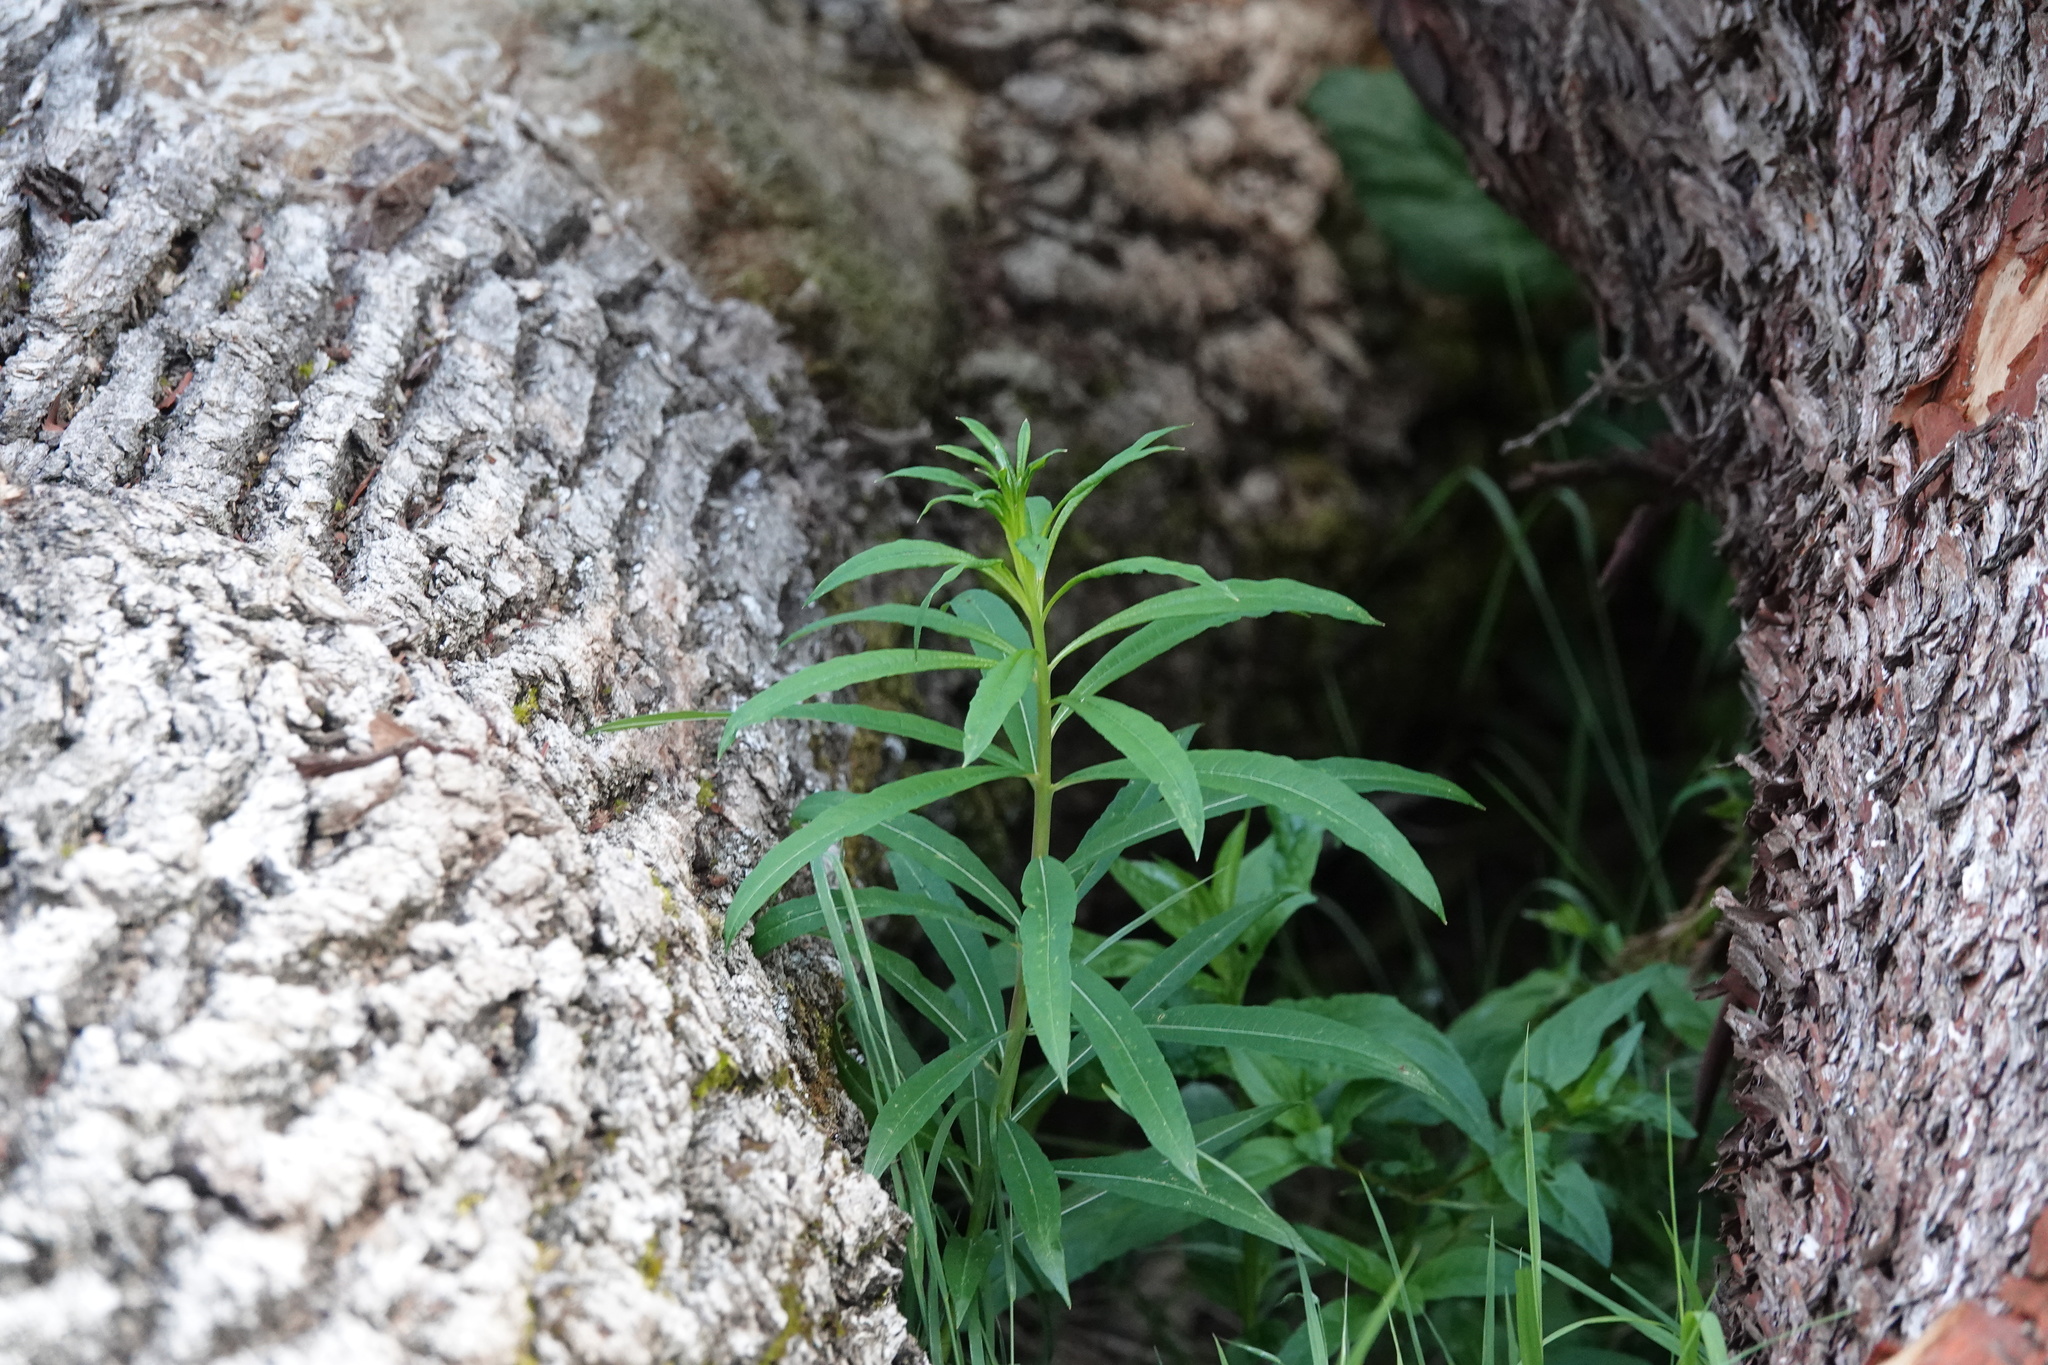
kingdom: Plantae
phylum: Tracheophyta
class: Magnoliopsida
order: Myrtales
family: Onagraceae
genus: Chamaenerion
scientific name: Chamaenerion angustifolium
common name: Fireweed
